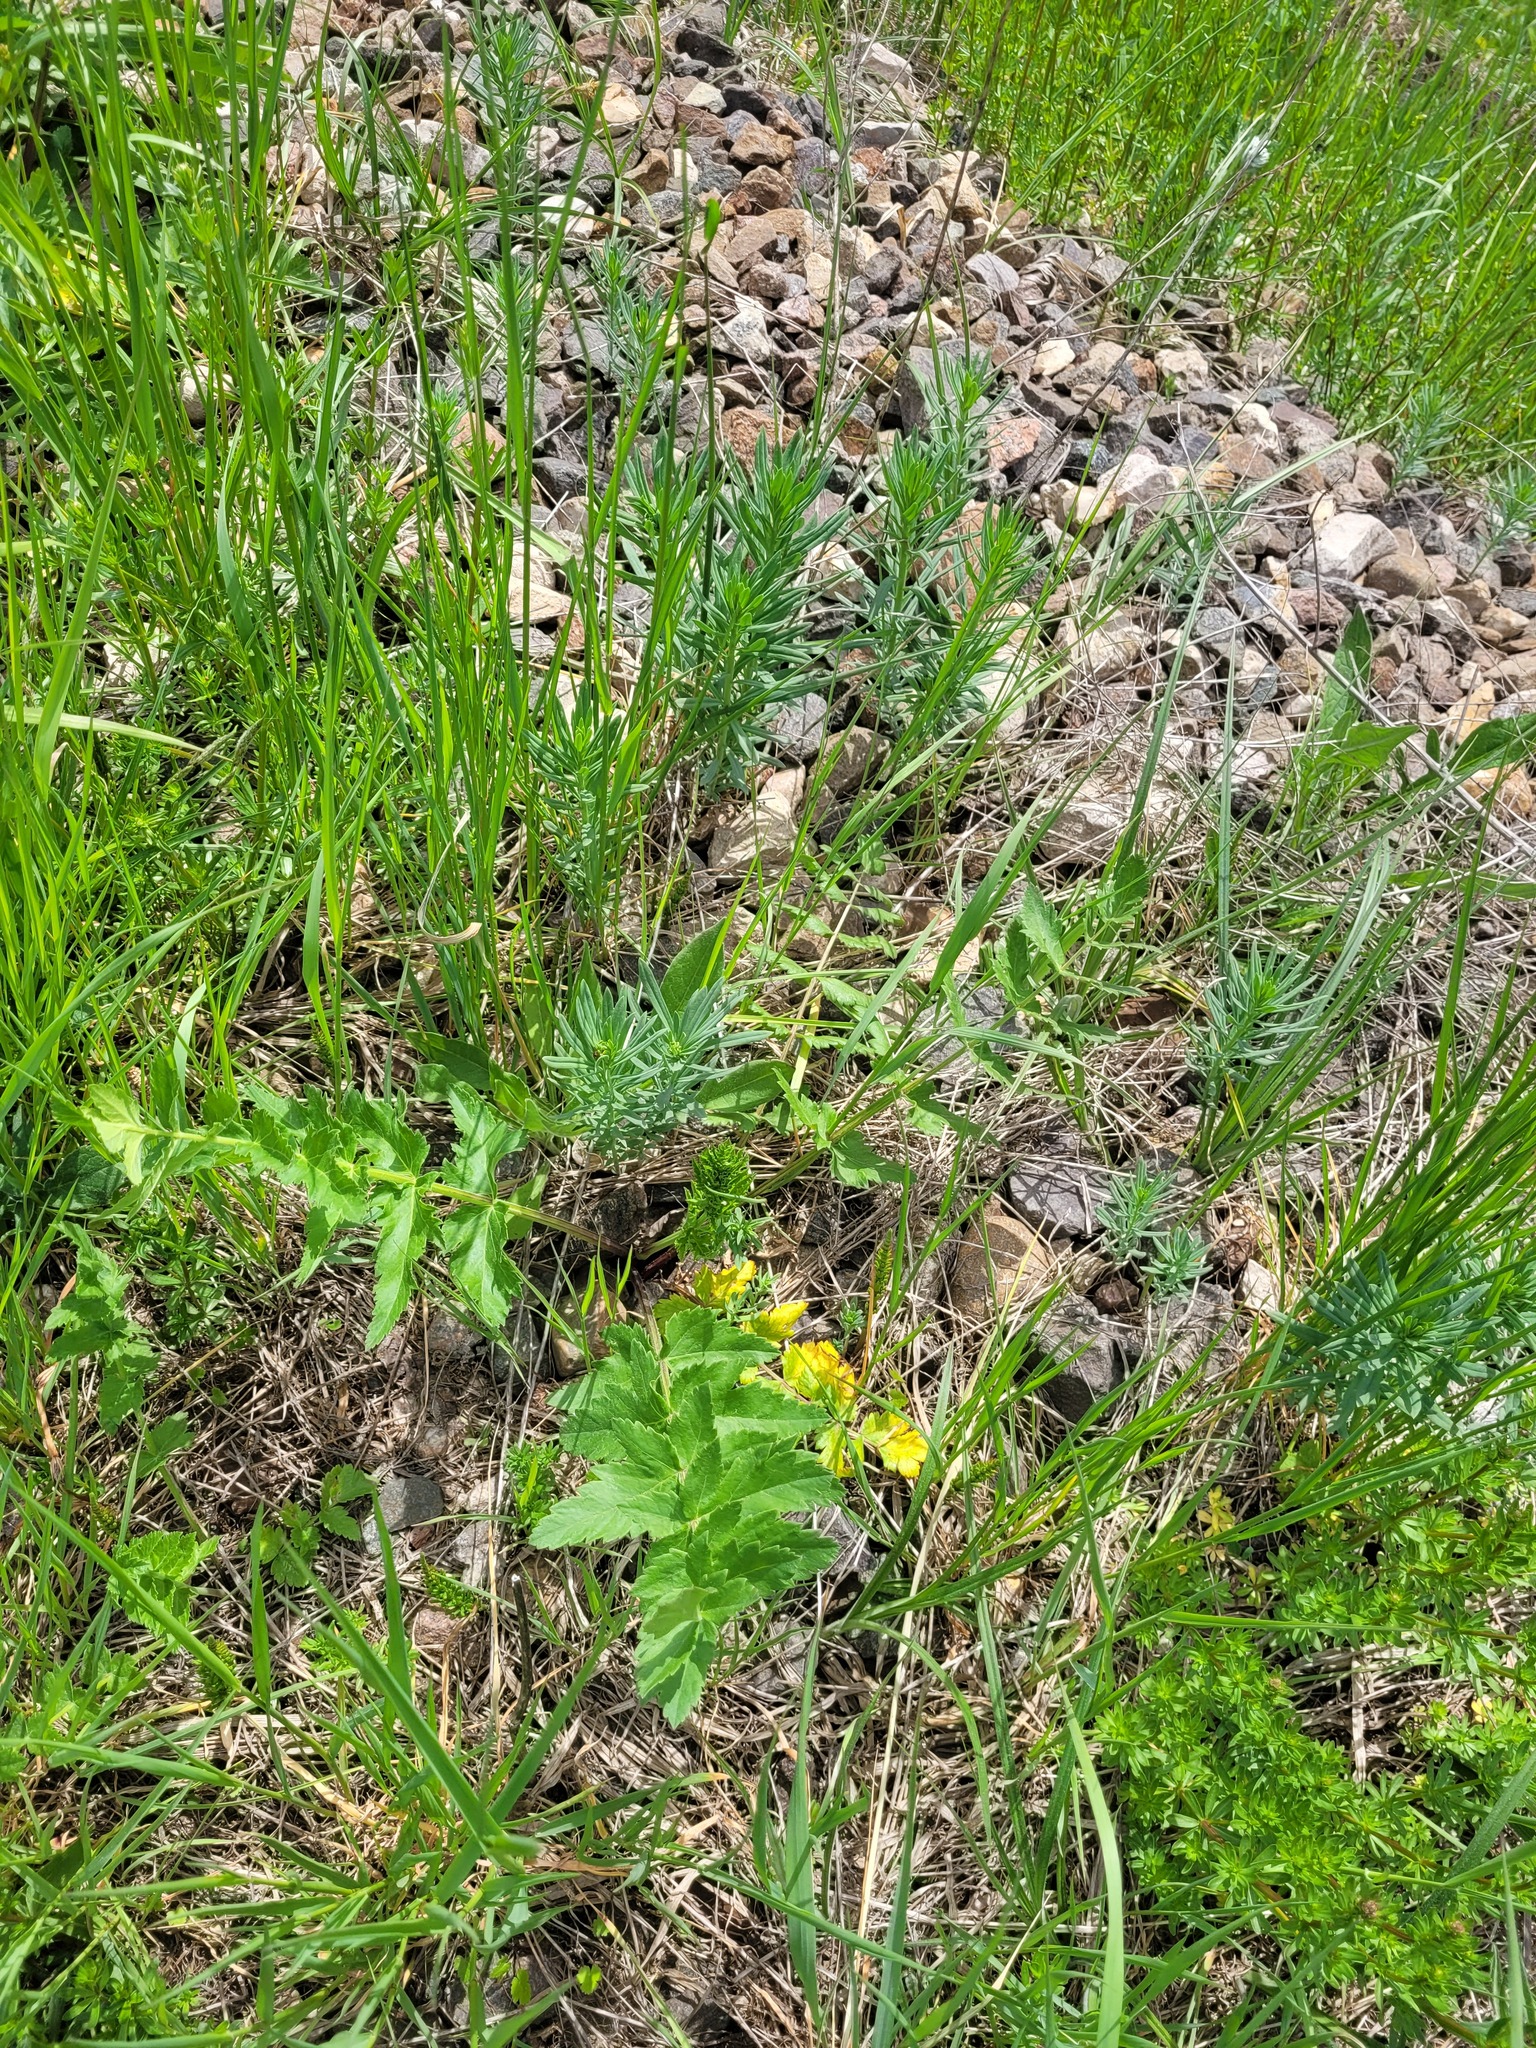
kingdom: Plantae
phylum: Tracheophyta
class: Magnoliopsida
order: Apiales
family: Apiaceae
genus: Pastinaca
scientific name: Pastinaca sativa
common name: Wild parsnip
